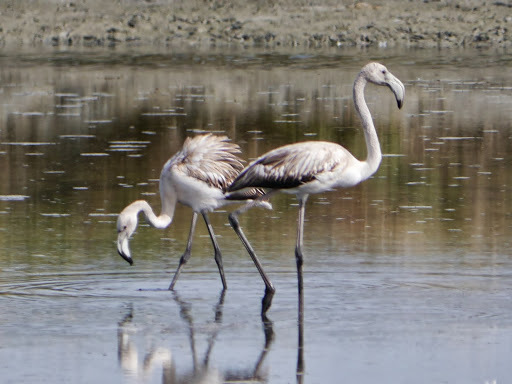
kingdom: Animalia
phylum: Chordata
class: Aves
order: Phoenicopteriformes
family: Phoenicopteridae
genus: Phoenicopterus
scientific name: Phoenicopterus roseus
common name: Greater flamingo
